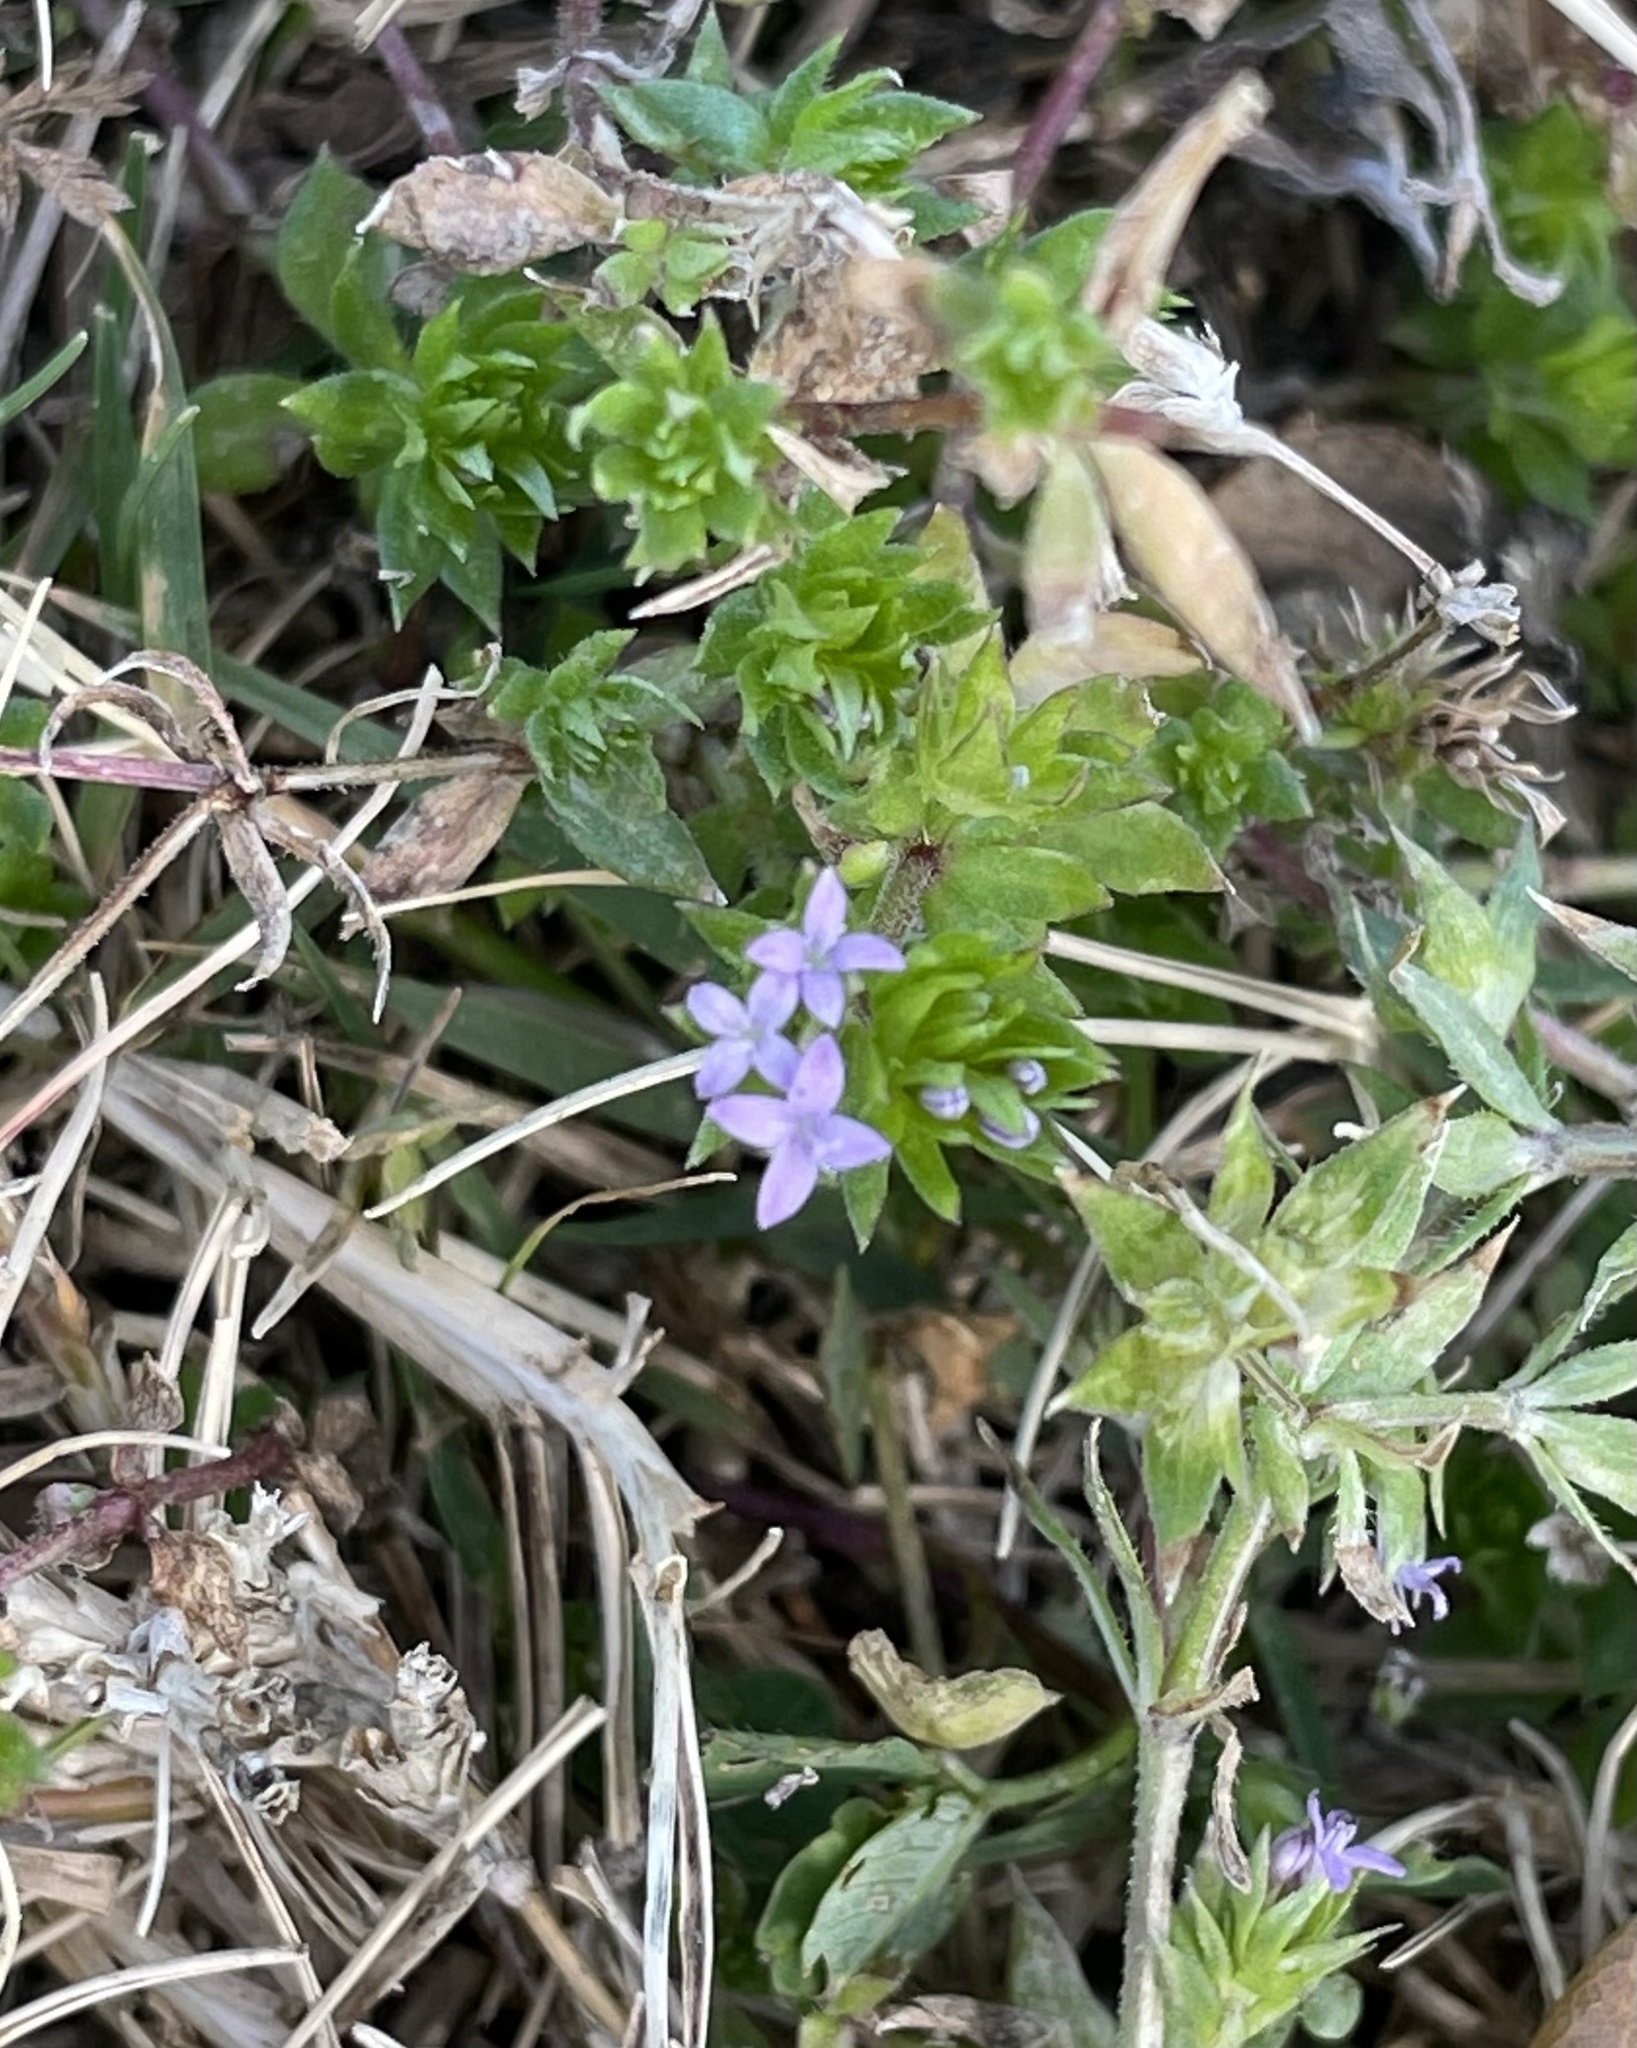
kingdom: Plantae
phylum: Tracheophyta
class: Magnoliopsida
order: Gentianales
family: Rubiaceae
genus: Sherardia
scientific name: Sherardia arvensis
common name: Field madder
